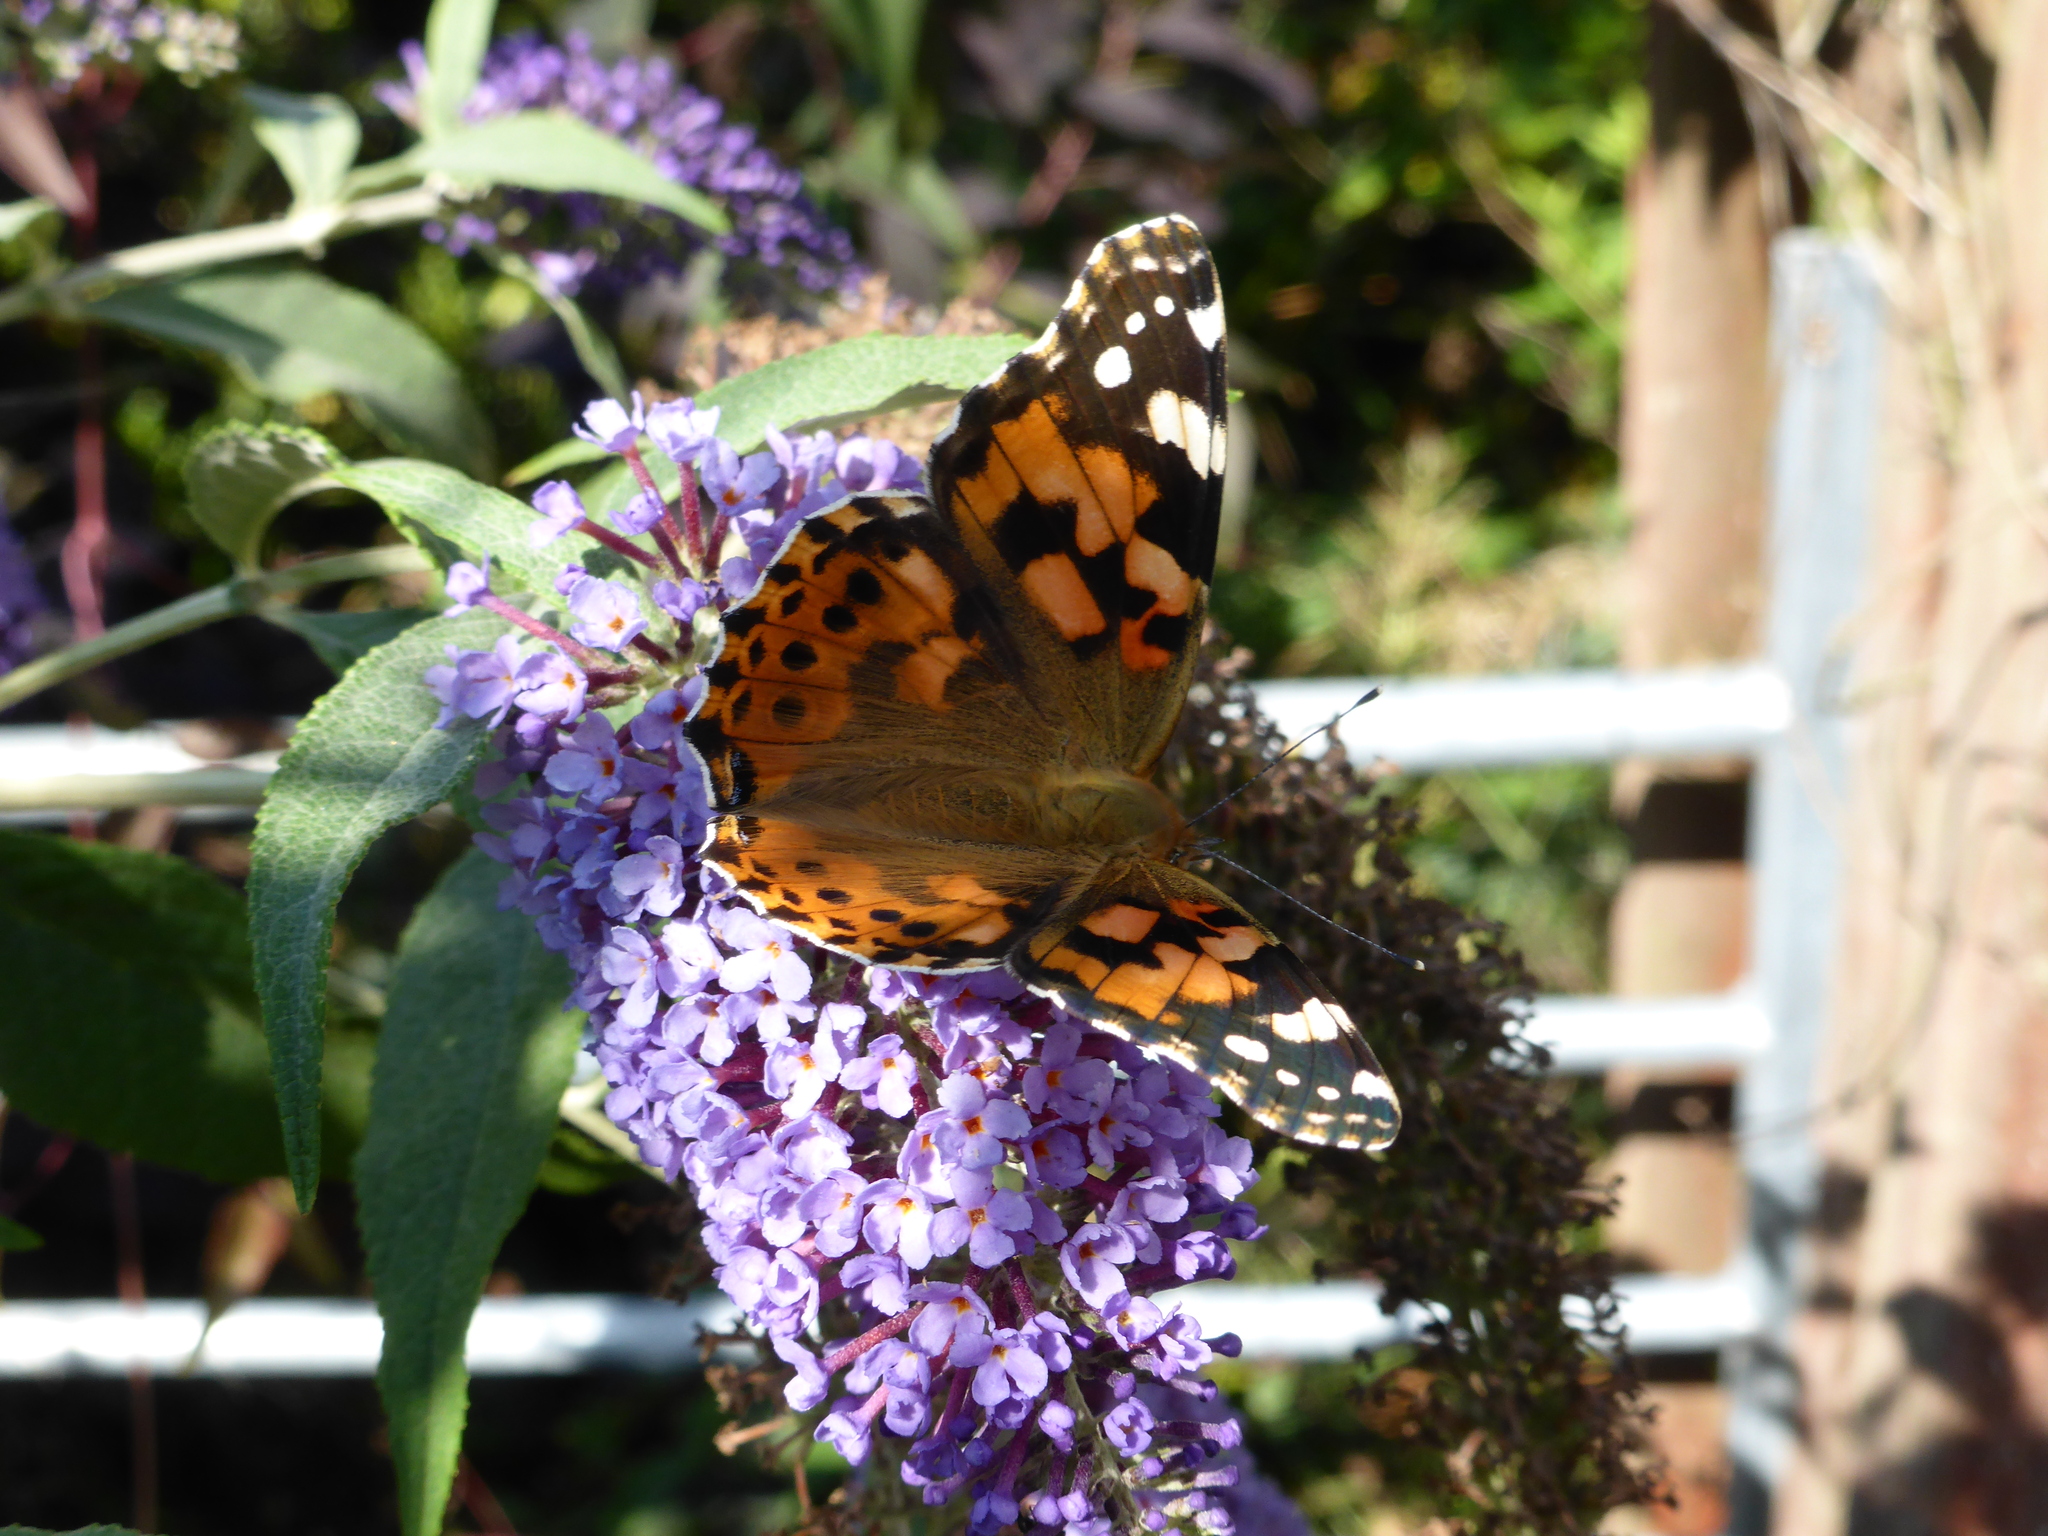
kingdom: Animalia
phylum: Arthropoda
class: Insecta
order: Lepidoptera
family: Nymphalidae
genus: Vanessa
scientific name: Vanessa cardui
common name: Painted lady
